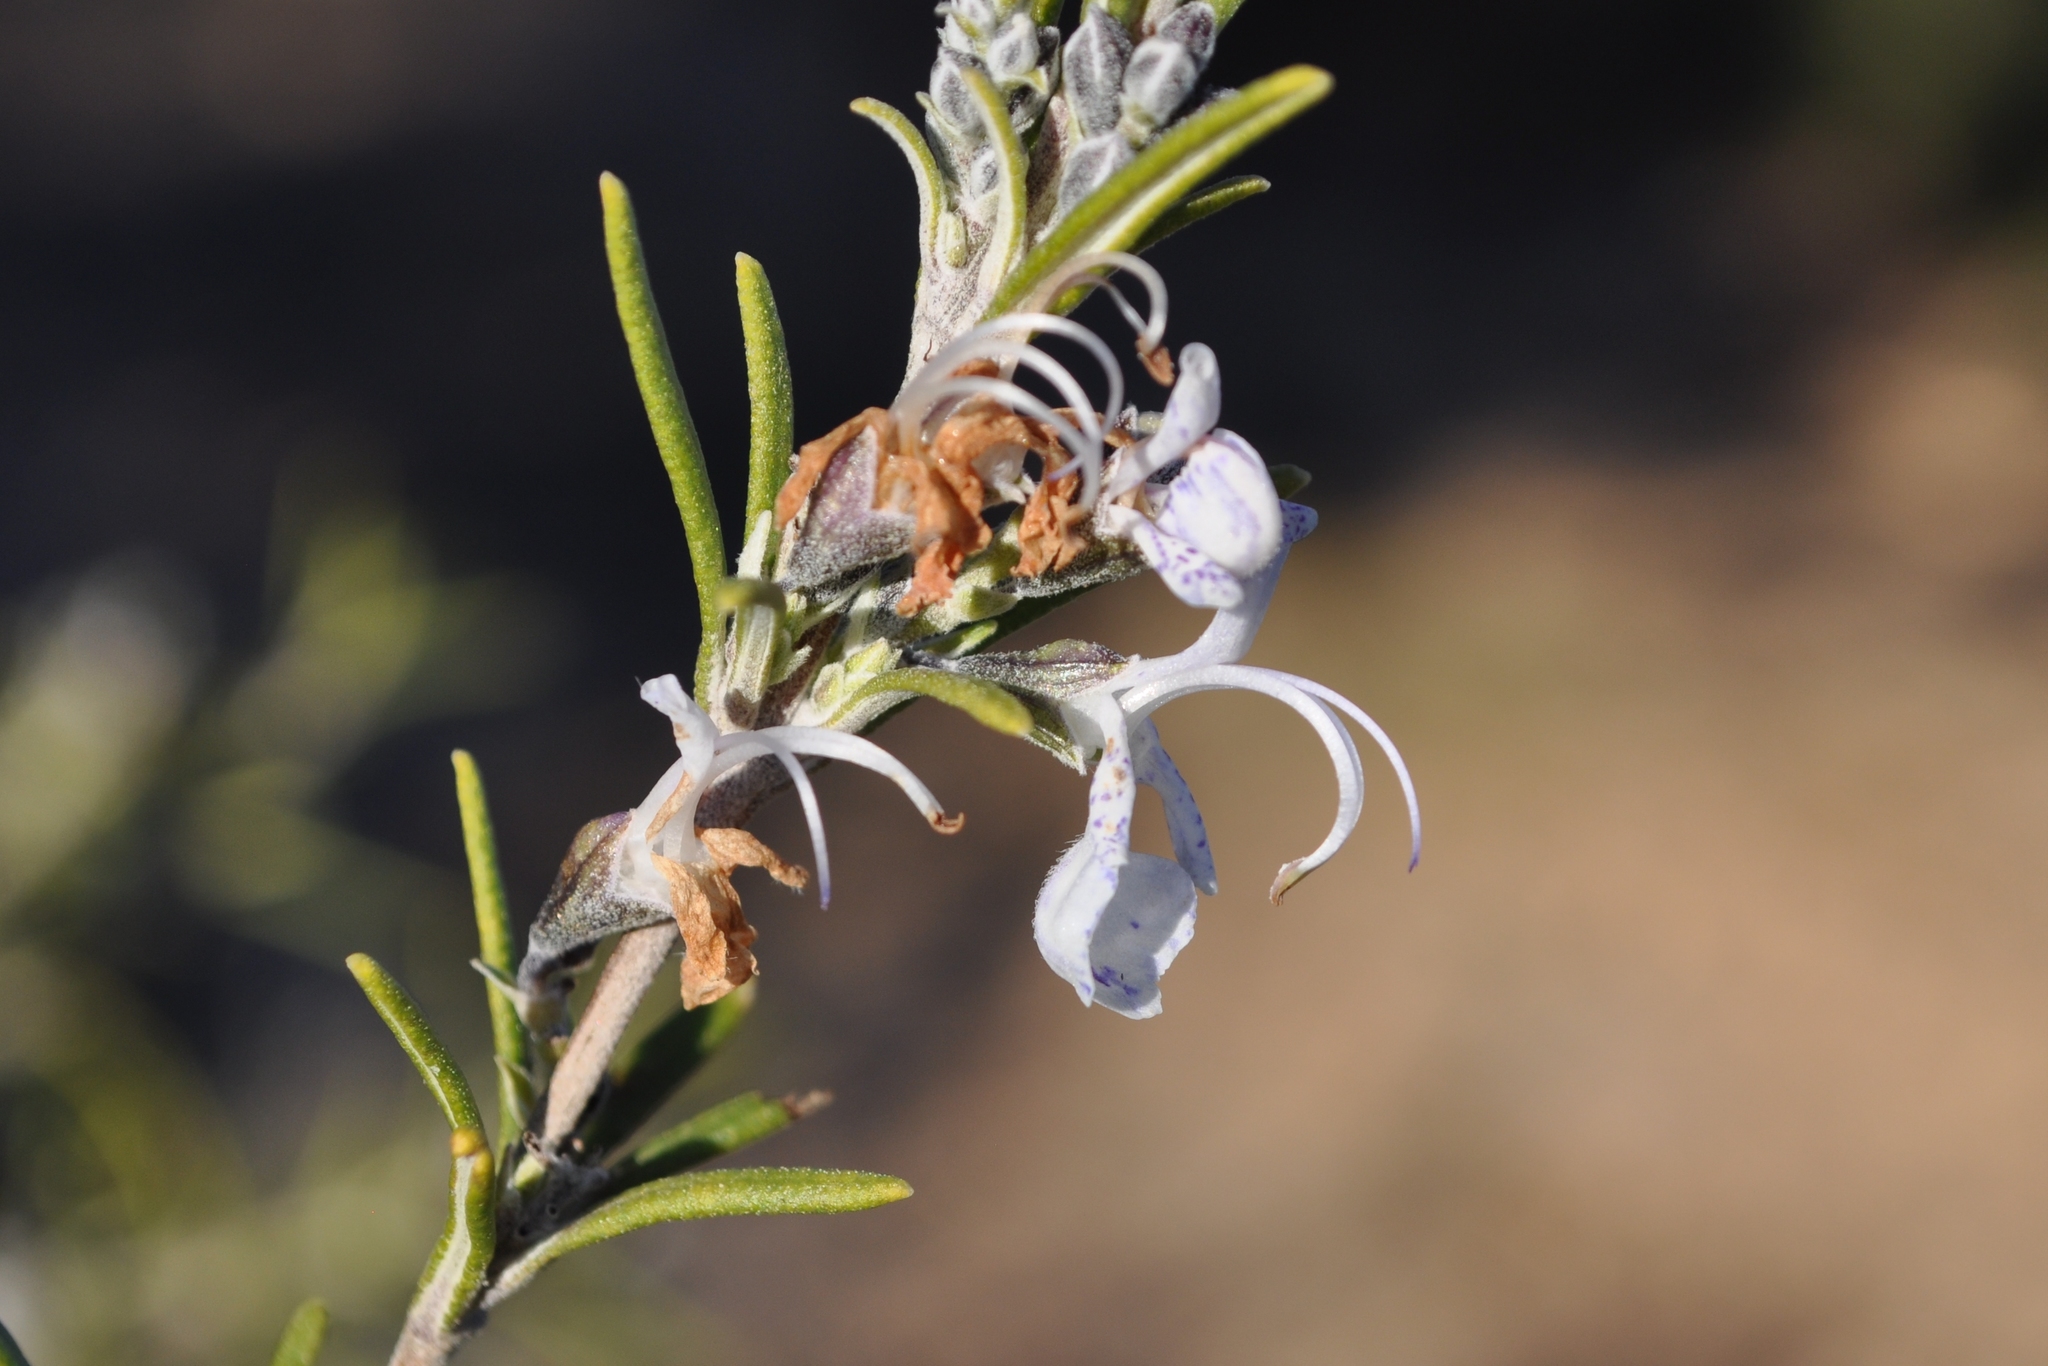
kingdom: Plantae
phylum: Tracheophyta
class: Magnoliopsida
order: Lamiales
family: Lamiaceae
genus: Salvia
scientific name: Salvia rosmarinus
